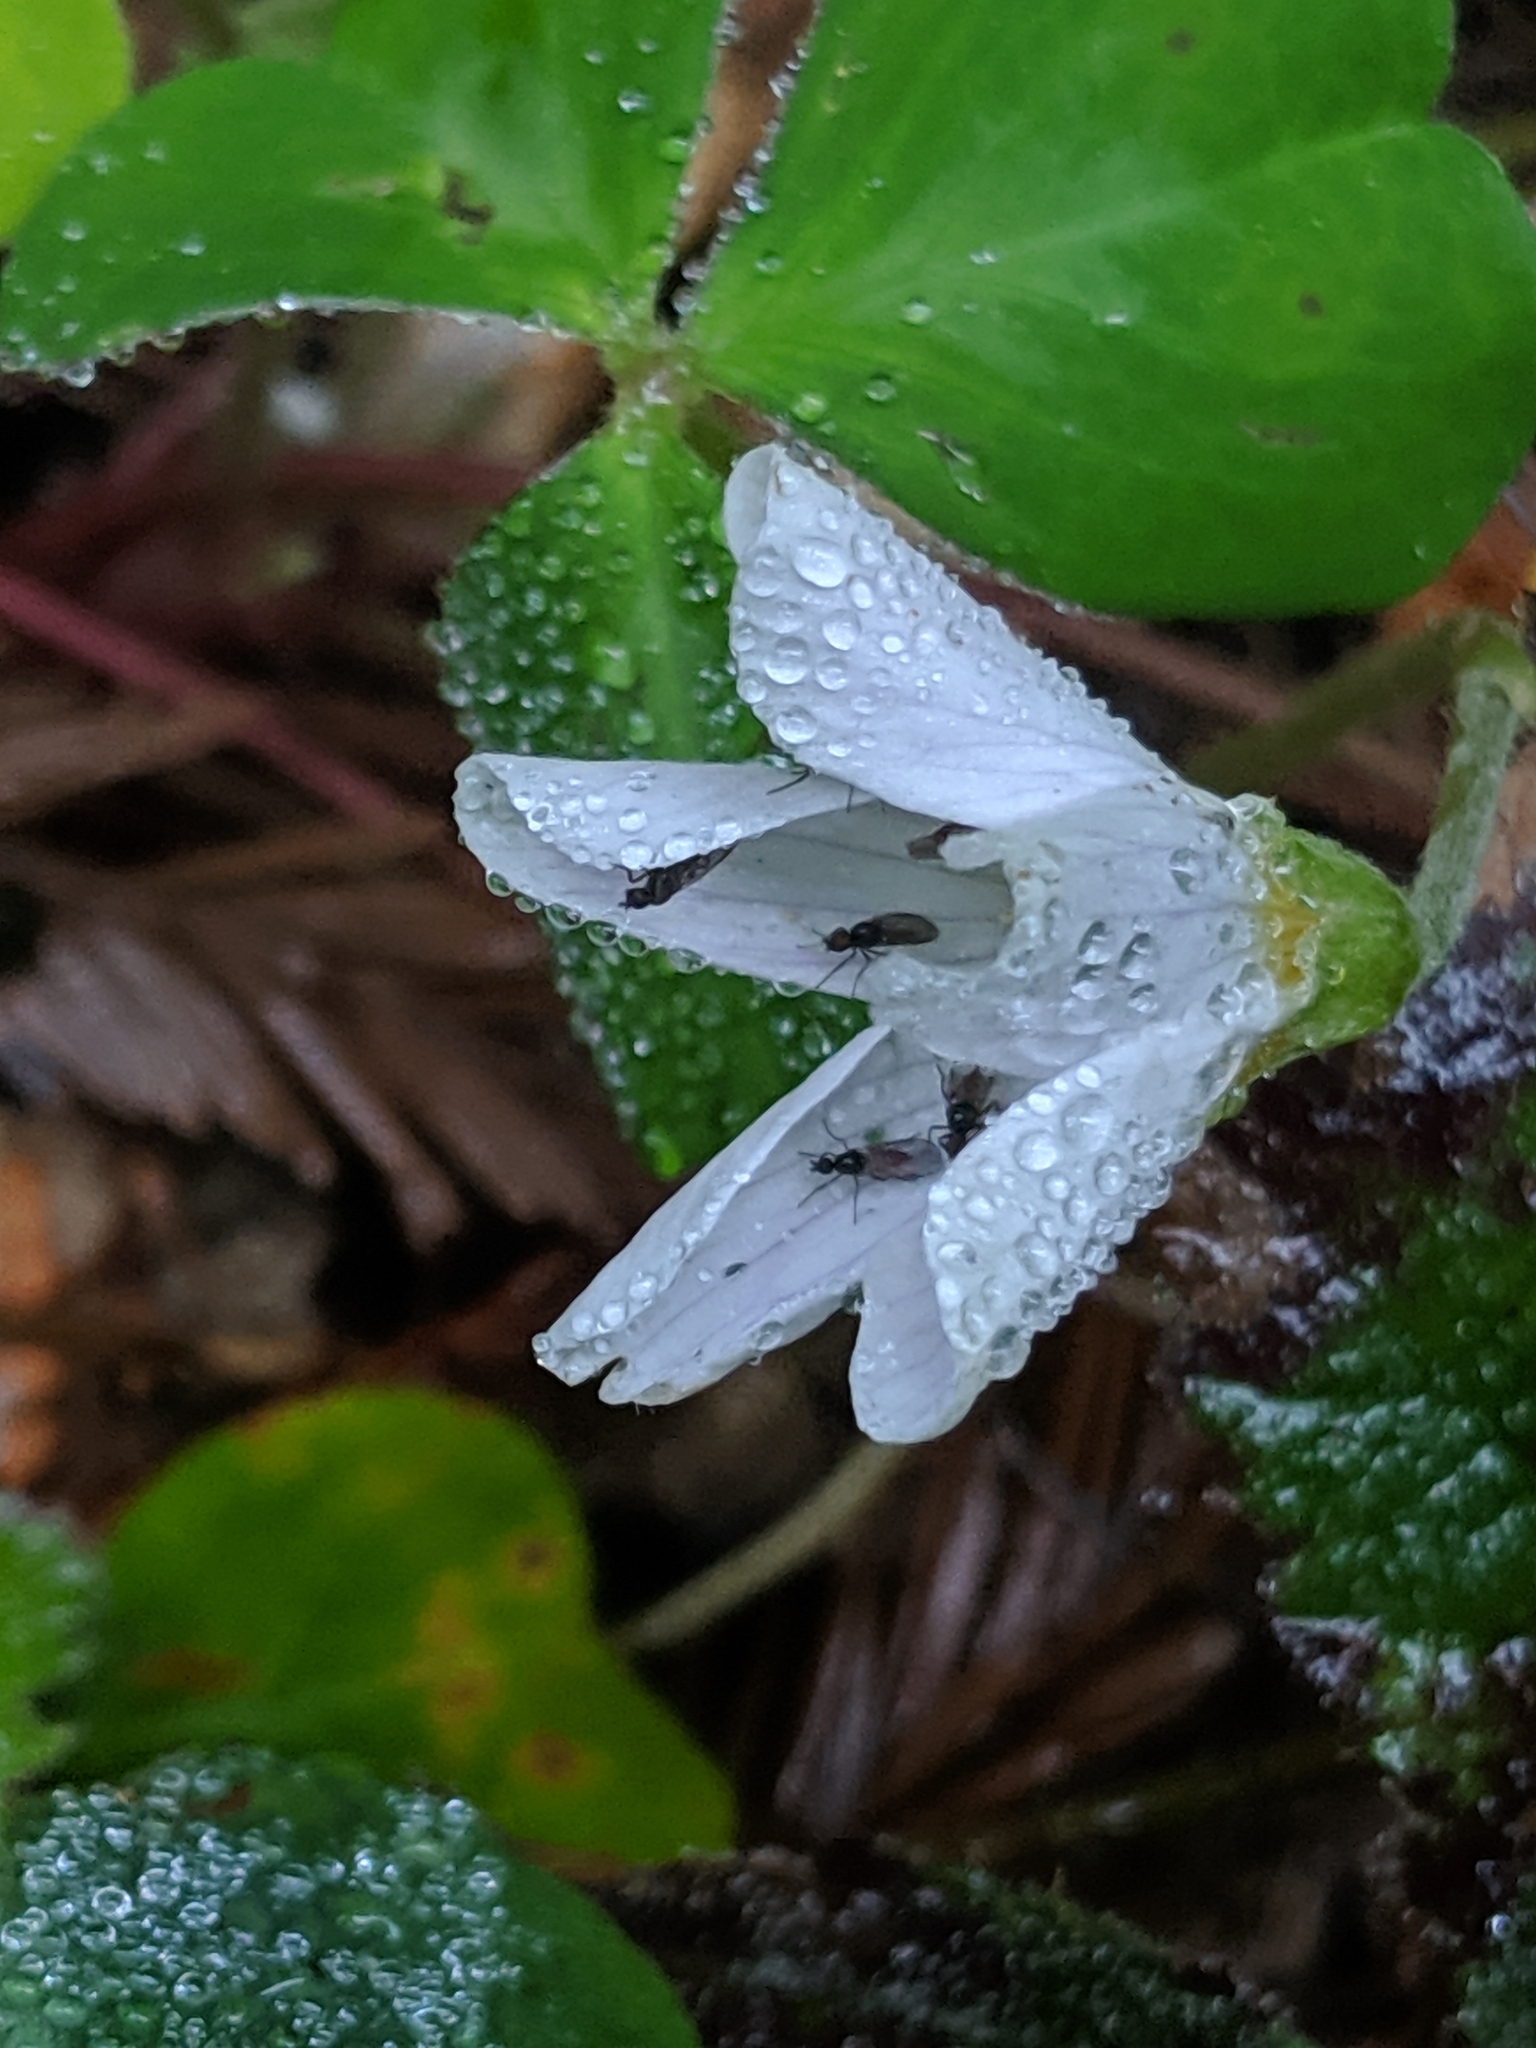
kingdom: Plantae
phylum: Tracheophyta
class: Magnoliopsida
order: Oxalidales
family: Oxalidaceae
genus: Oxalis
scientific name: Oxalis oregana
